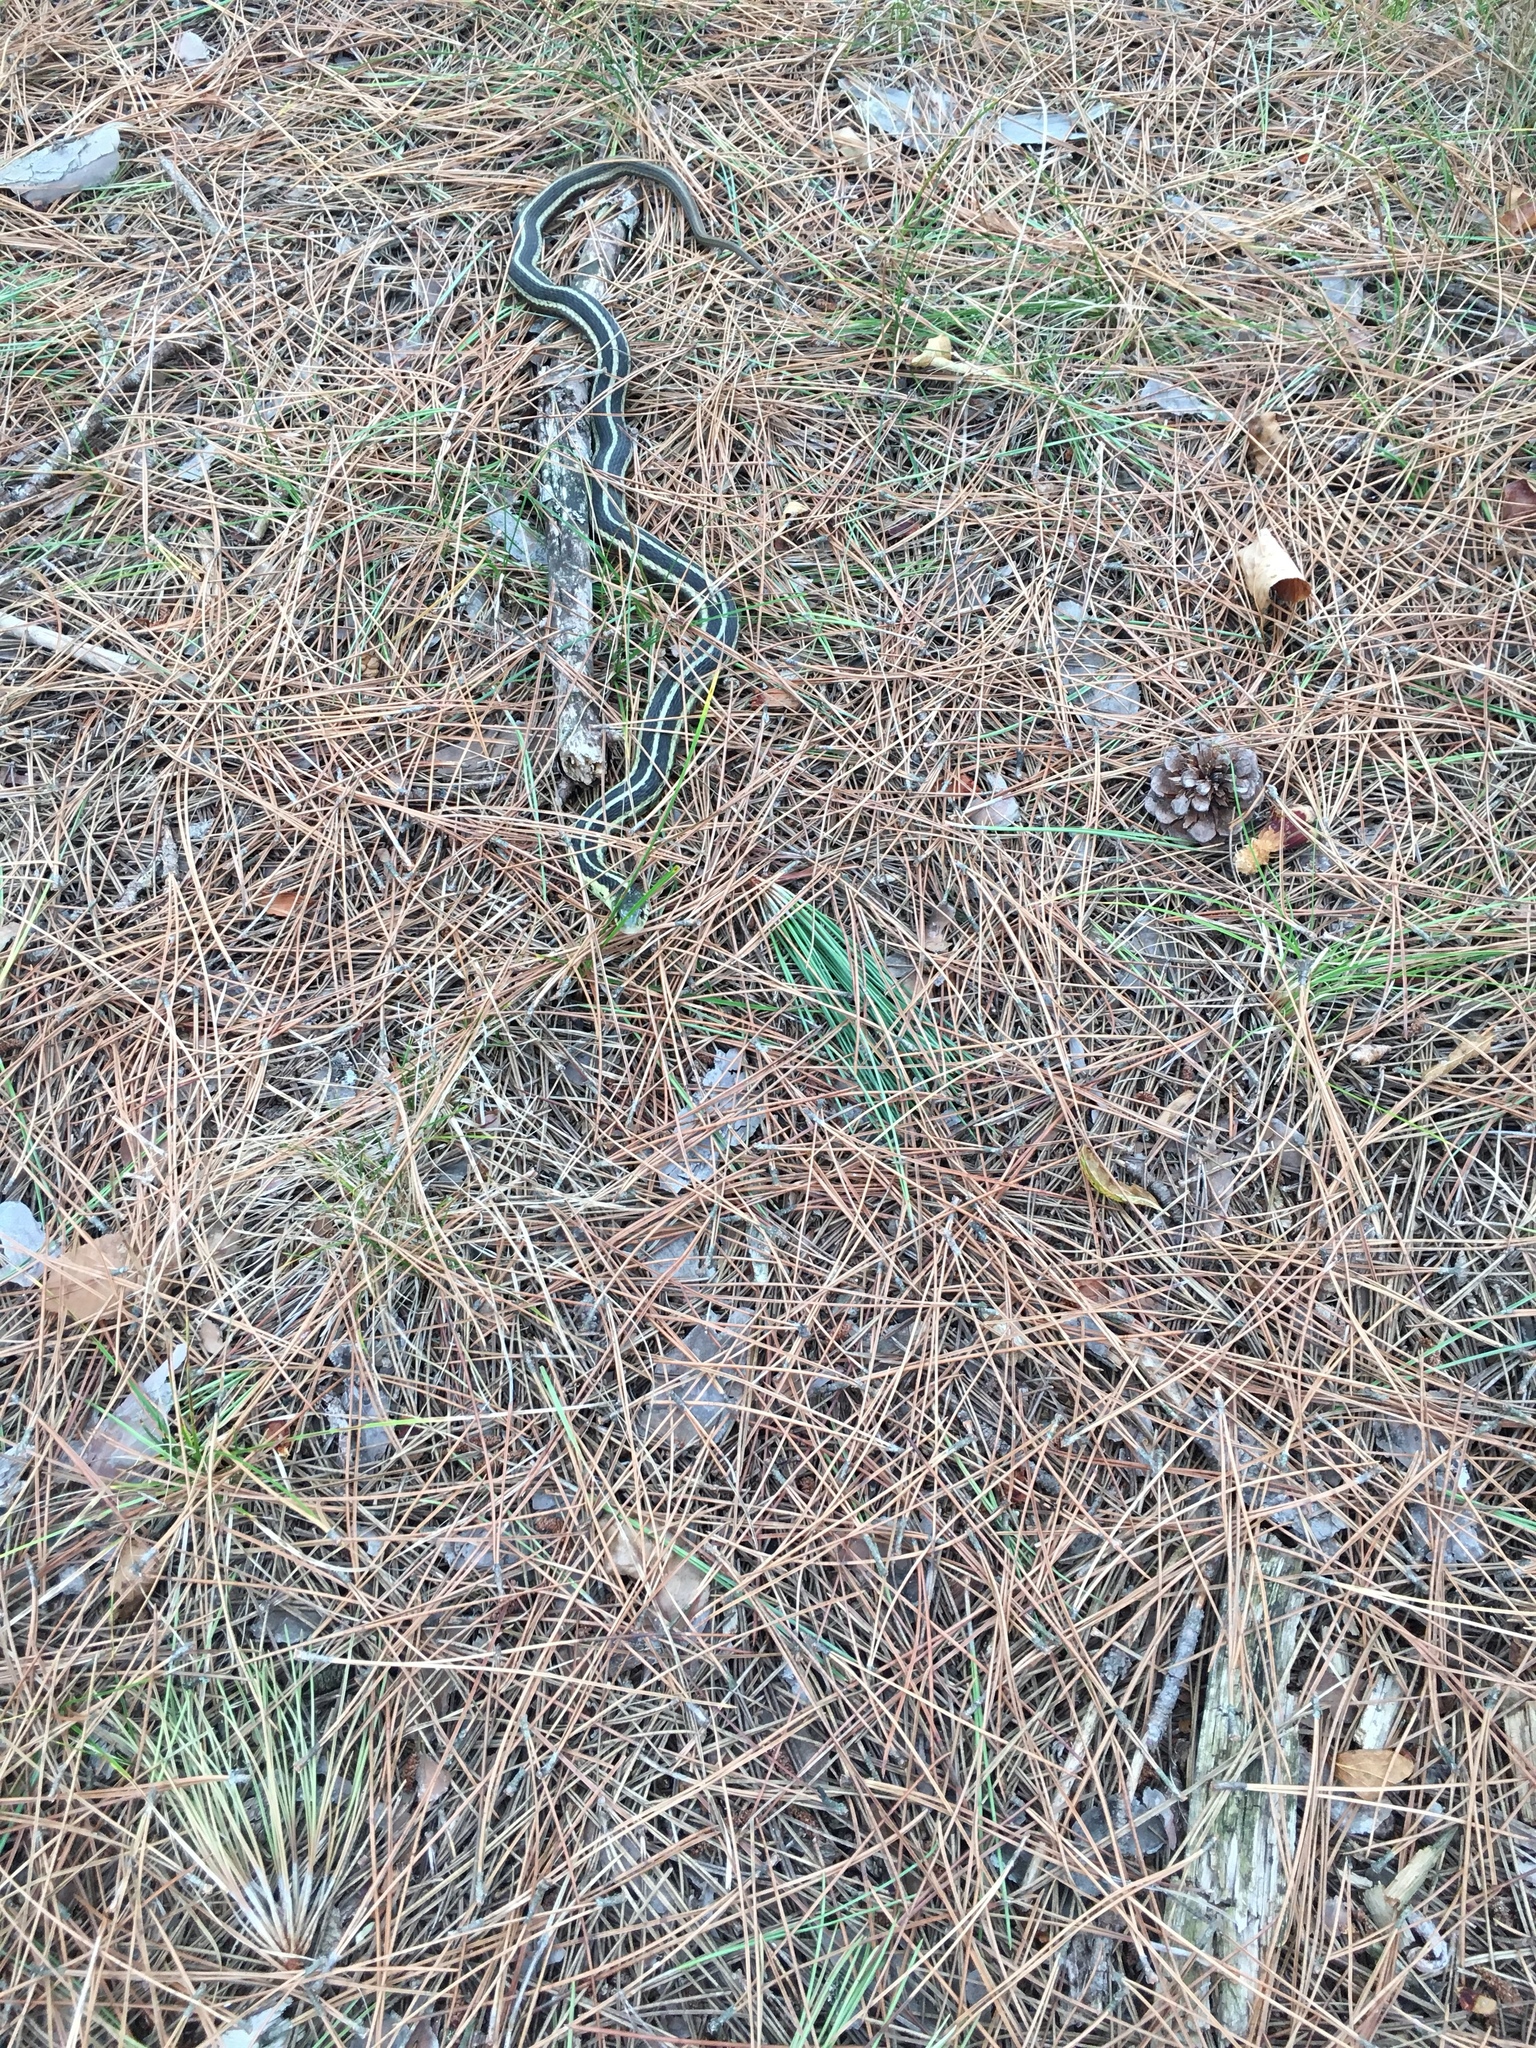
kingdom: Animalia
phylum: Chordata
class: Squamata
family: Colubridae
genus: Thamnophis
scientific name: Thamnophis sirtalis
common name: Common garter snake
